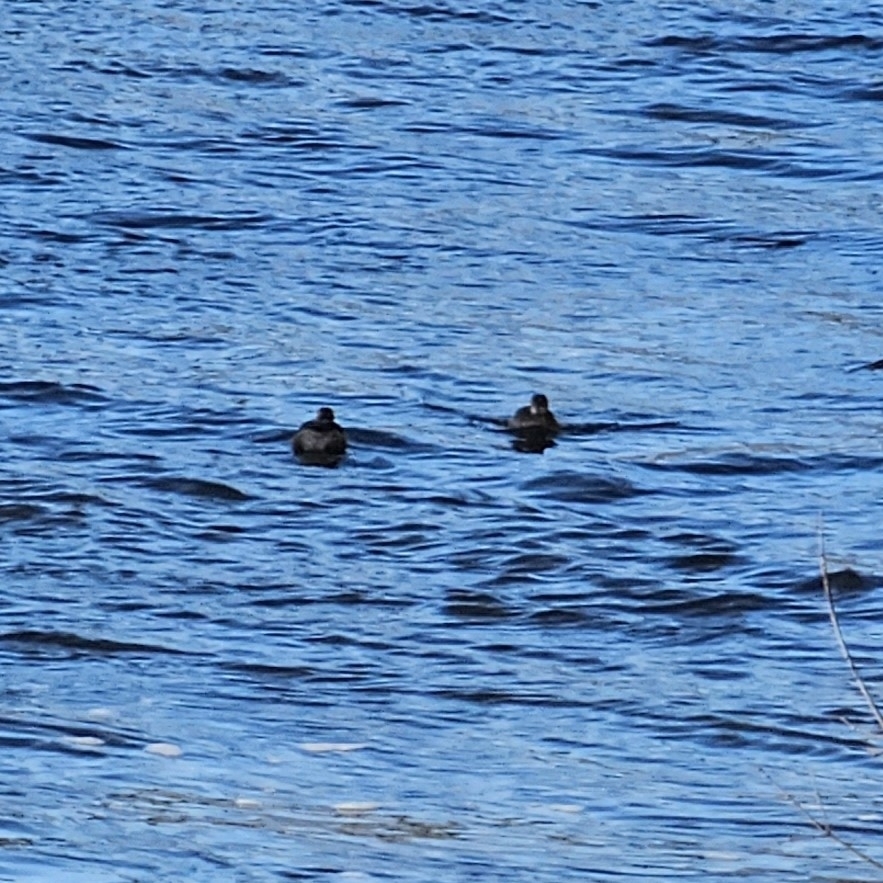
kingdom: Animalia
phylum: Chordata
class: Aves
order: Podicipediformes
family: Podicipedidae
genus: Tachybaptus
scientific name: Tachybaptus ruficollis
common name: Little grebe
